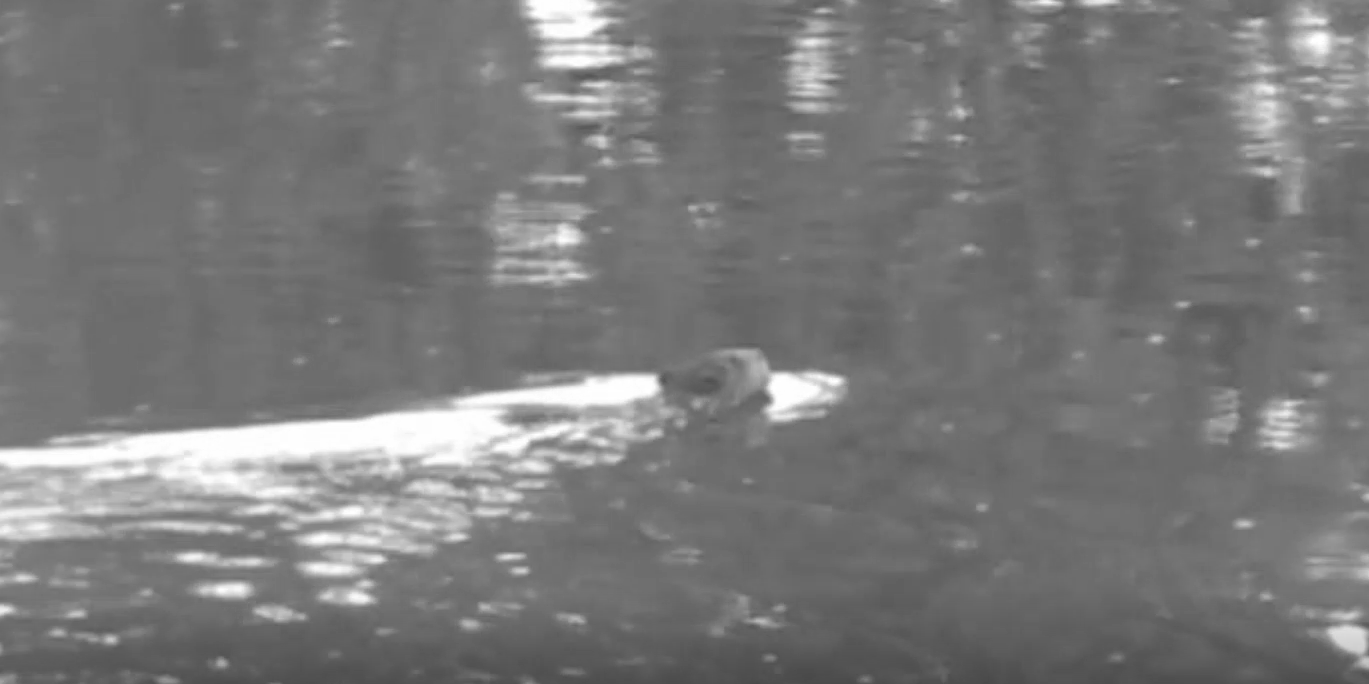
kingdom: Animalia
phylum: Chordata
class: Mammalia
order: Rodentia
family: Castoridae
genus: Castor
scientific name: Castor canadensis
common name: American beaver
